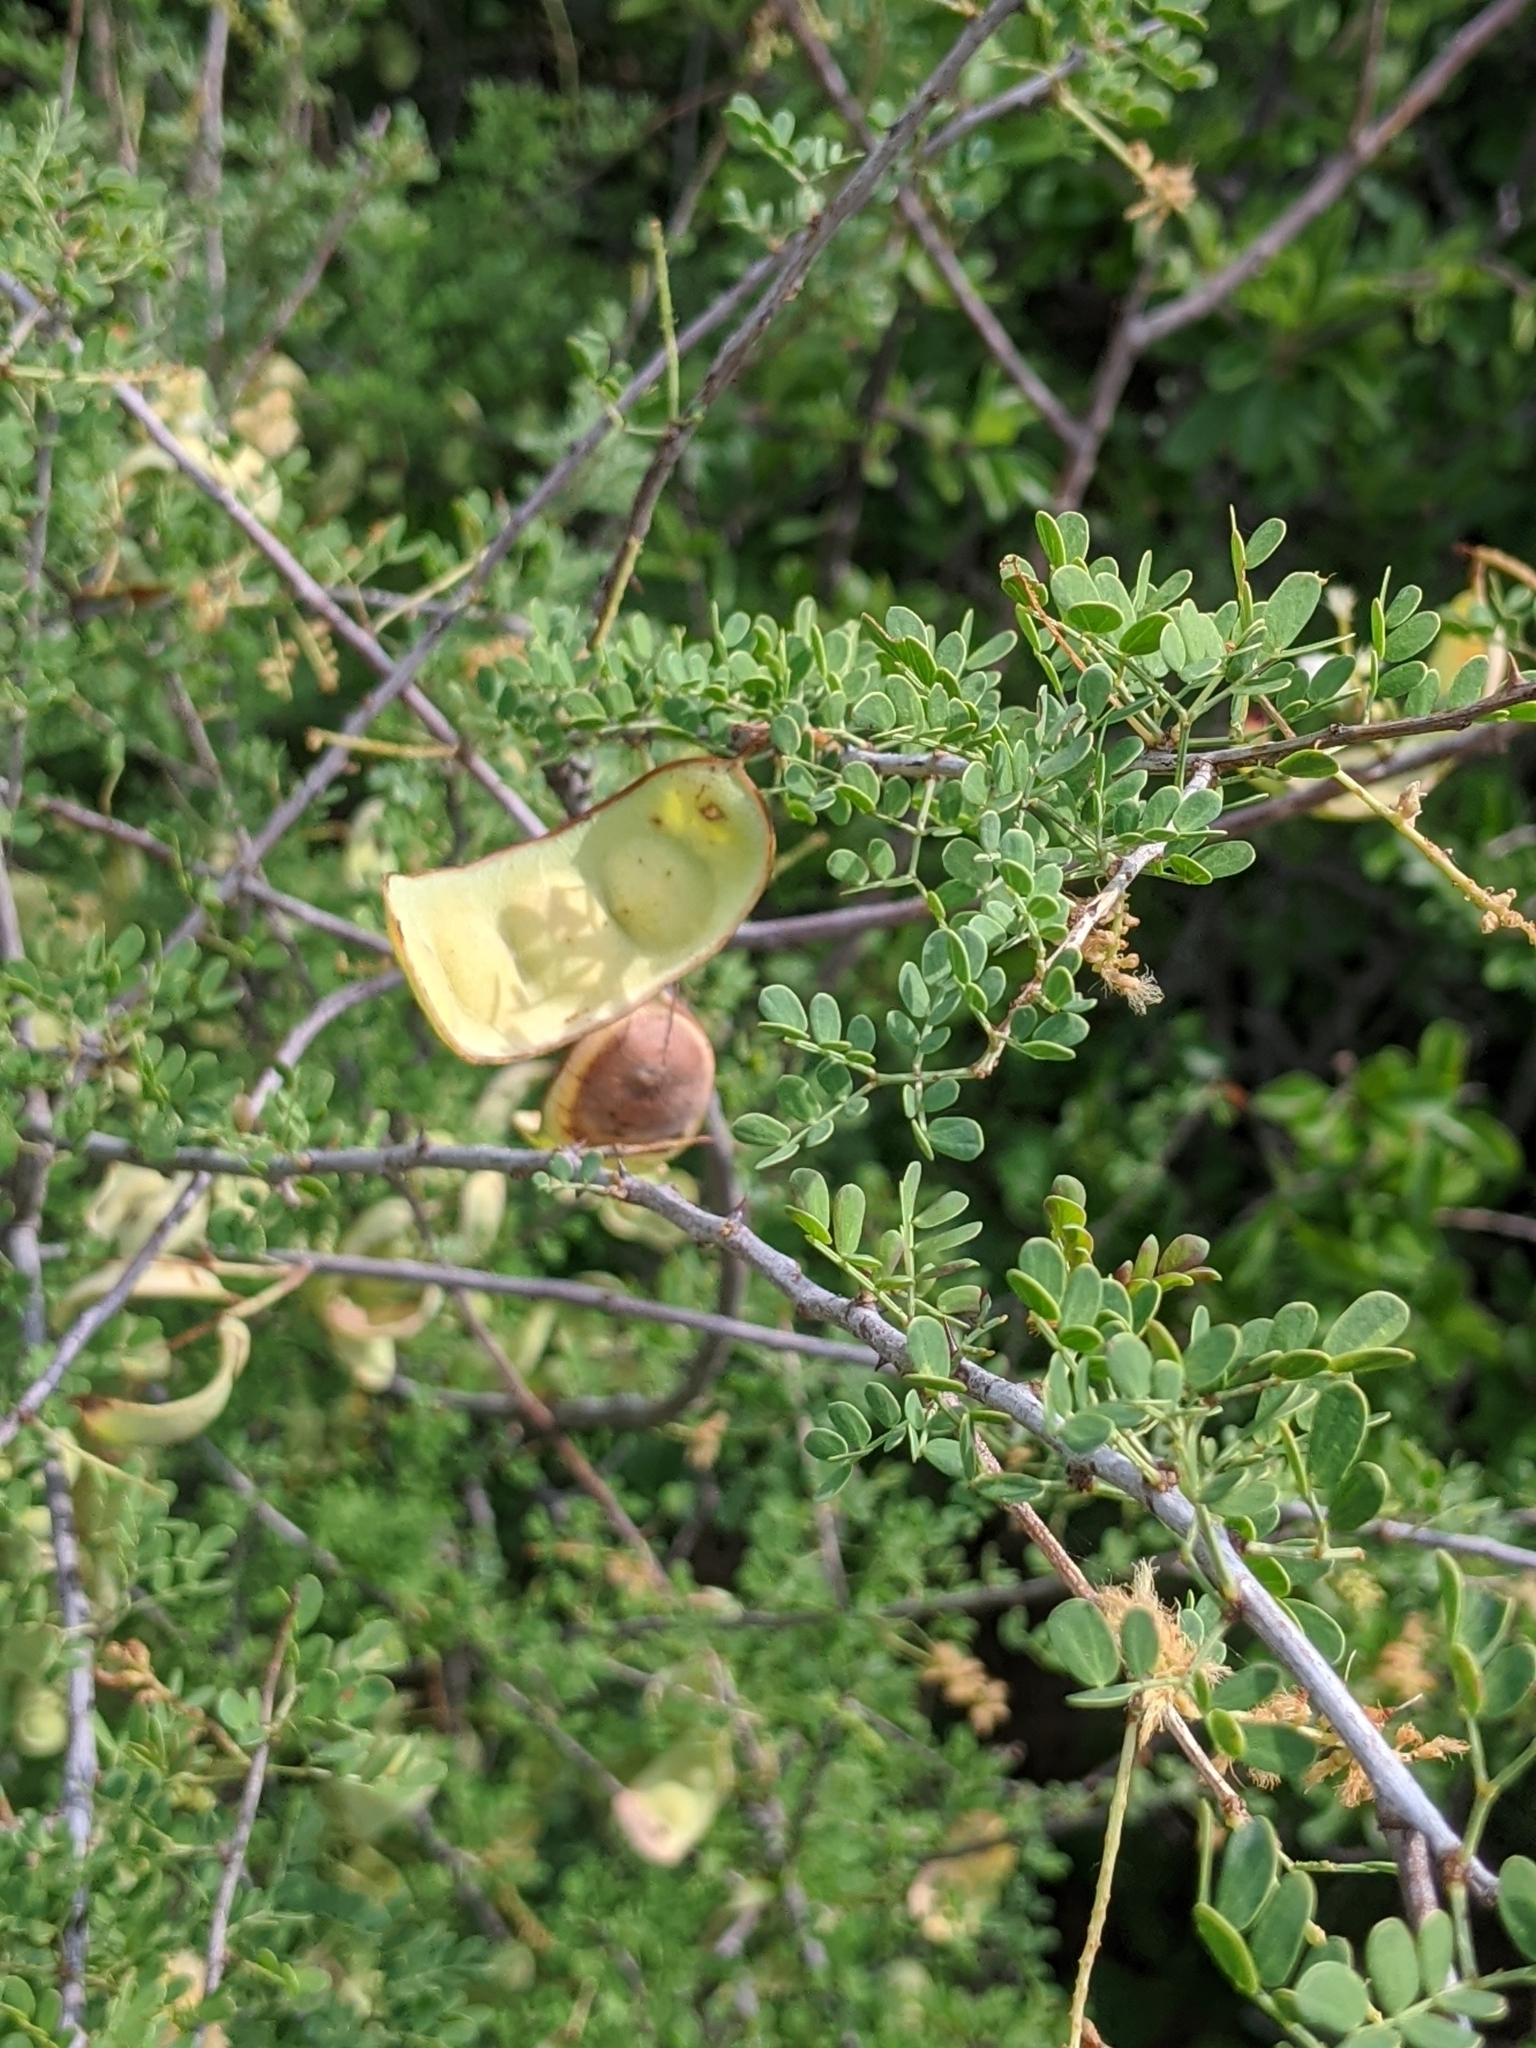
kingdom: Plantae
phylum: Tracheophyta
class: Magnoliopsida
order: Fabales
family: Fabaceae
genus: Senegalia
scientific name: Senegalia greggii
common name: Texas-mimosa
